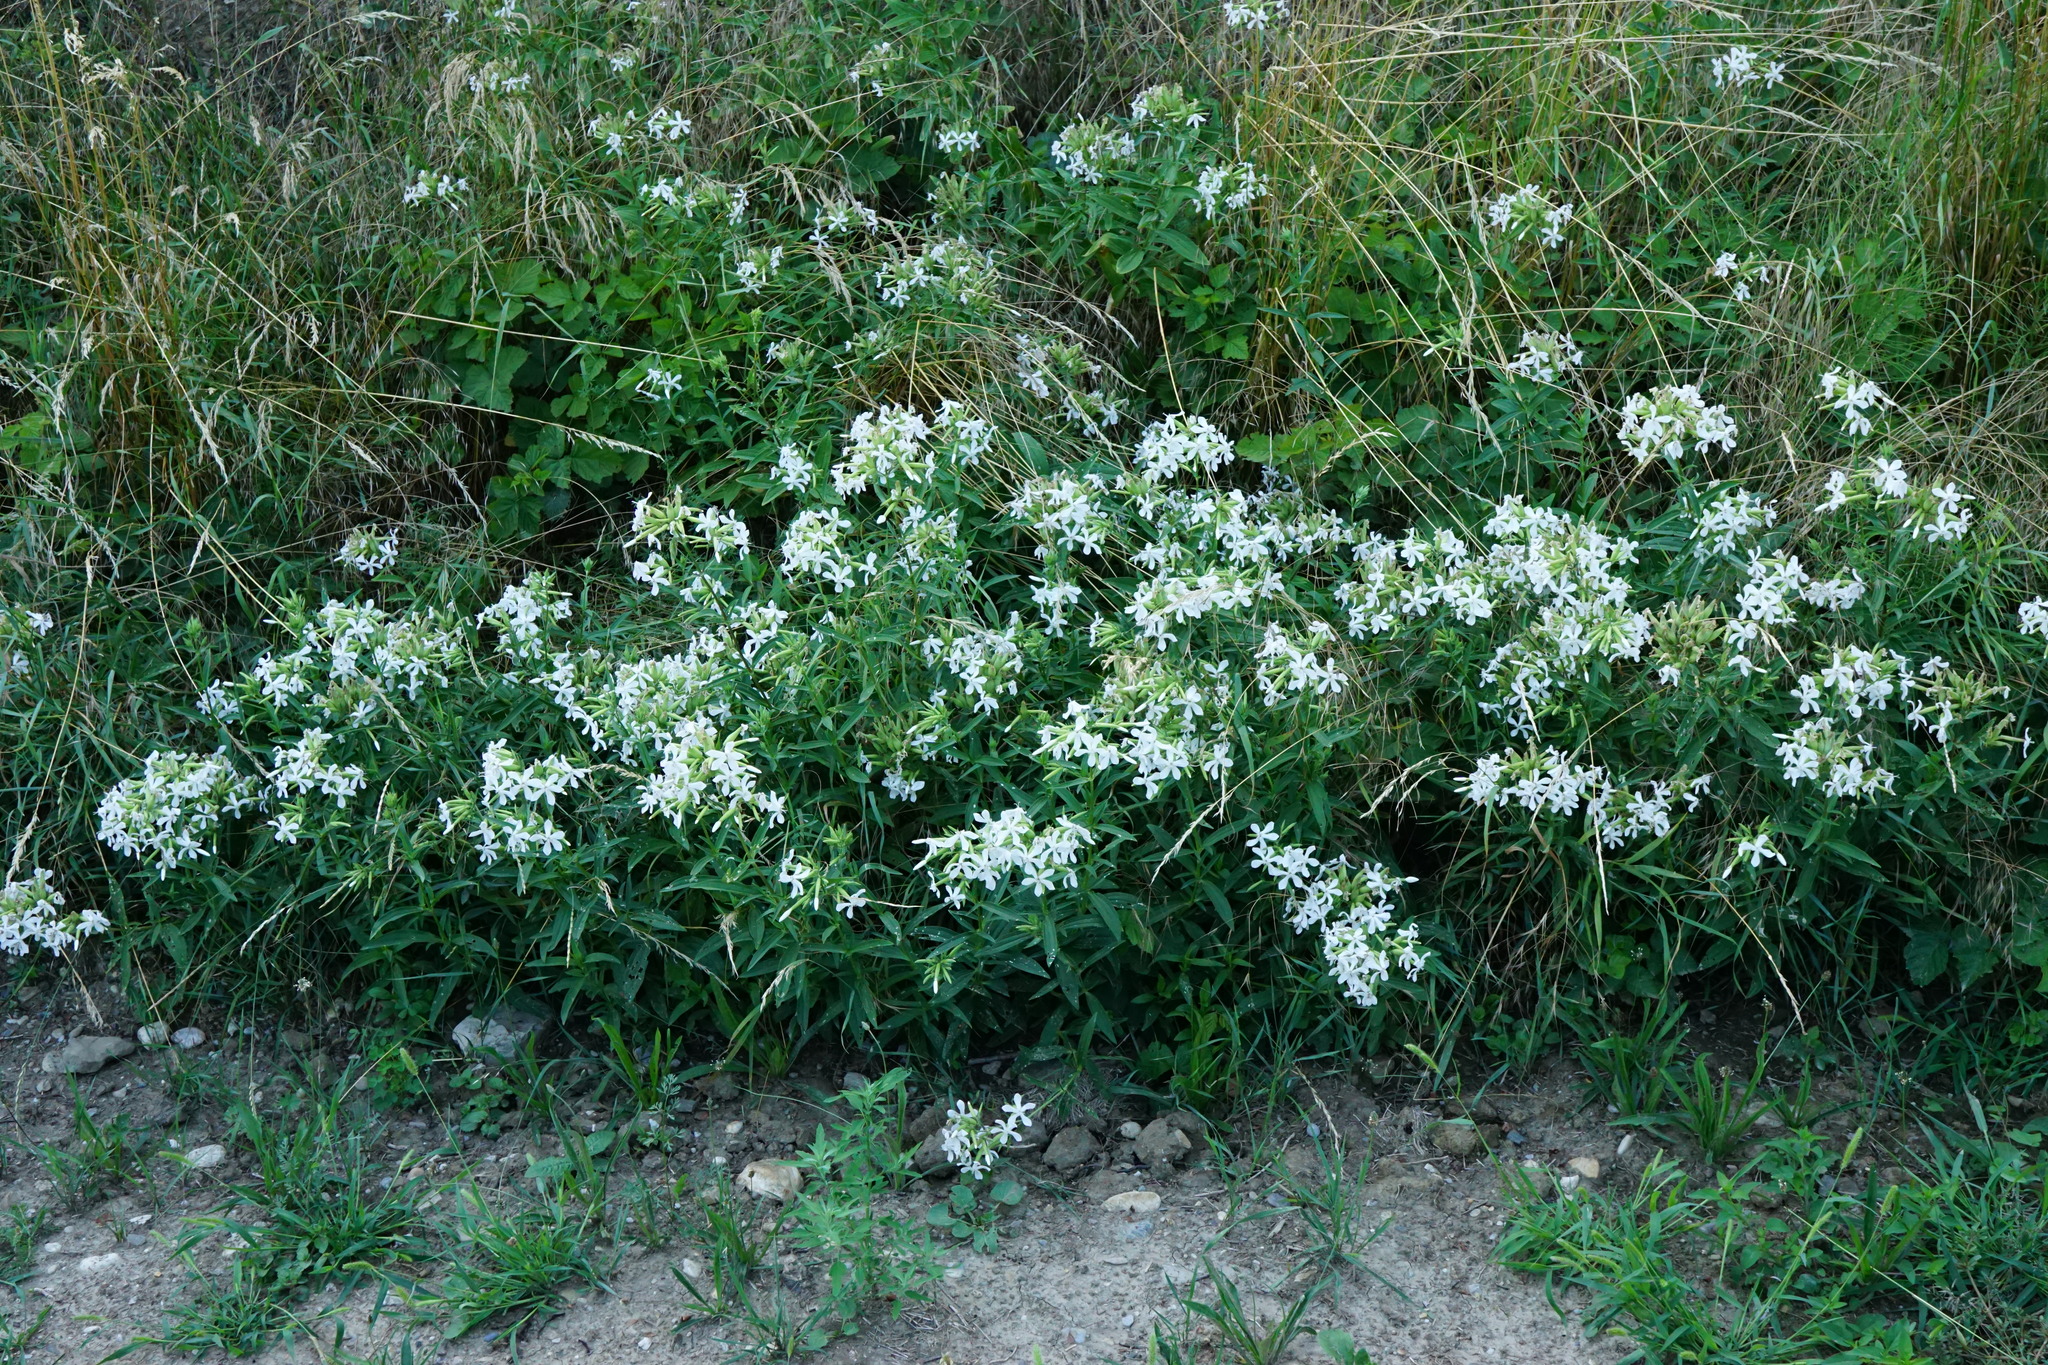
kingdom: Plantae
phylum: Tracheophyta
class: Magnoliopsida
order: Caryophyllales
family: Caryophyllaceae
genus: Saponaria
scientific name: Saponaria officinalis
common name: Soapwort
